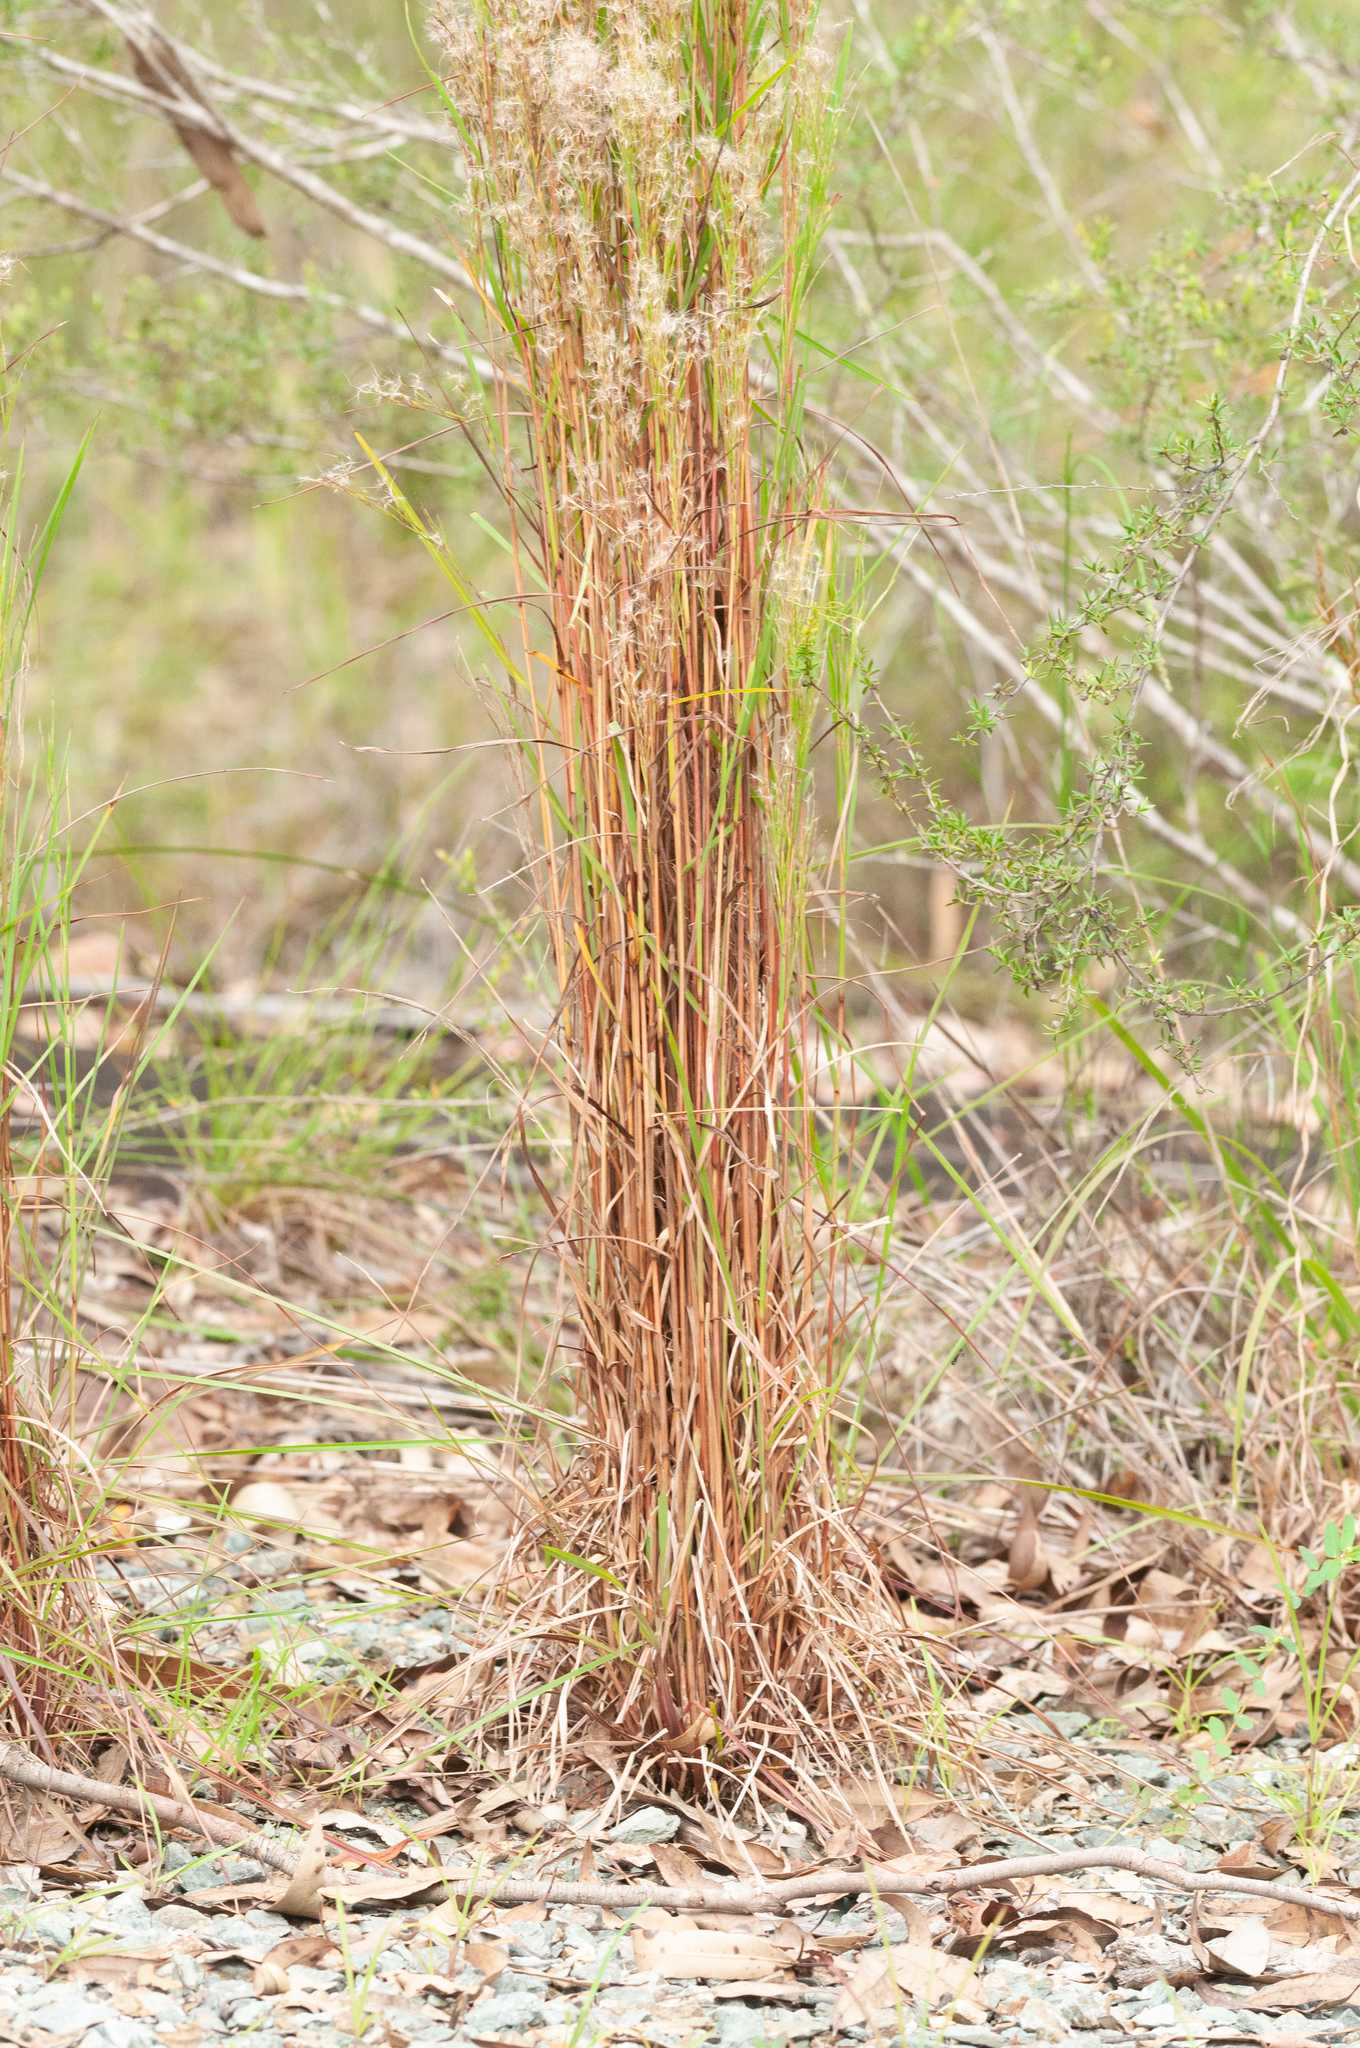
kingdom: Plantae
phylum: Tracheophyta
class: Liliopsida
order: Poales
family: Poaceae
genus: Schizachyrium
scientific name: Schizachyrium microstachyum
